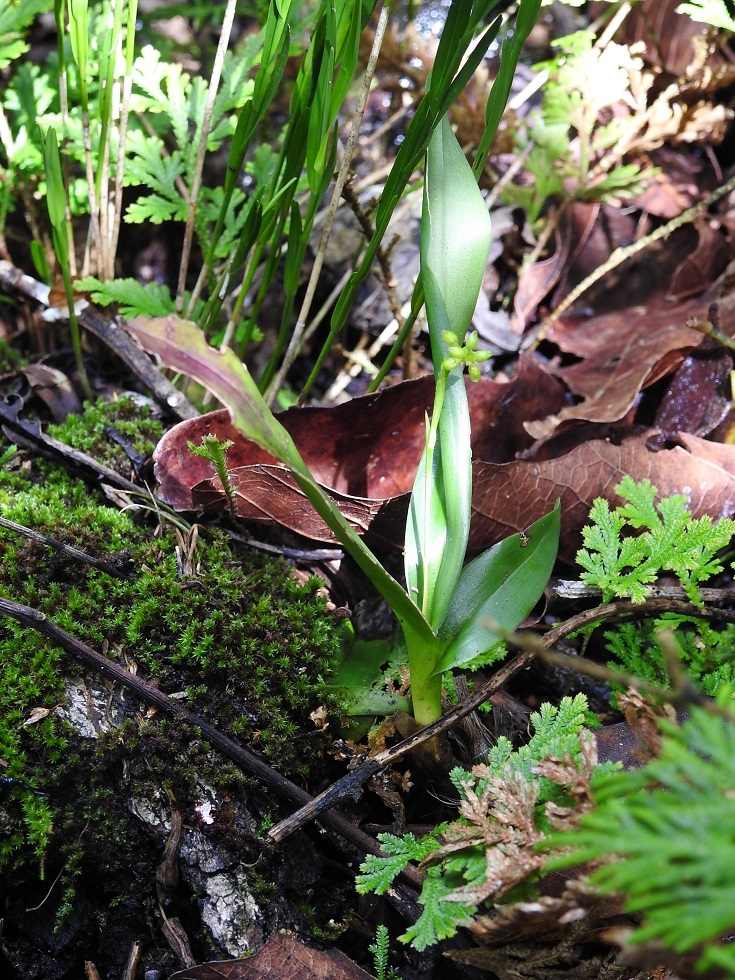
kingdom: Plantae
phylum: Tracheophyta
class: Liliopsida
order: Asparagales
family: Orchidaceae
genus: Polystachya
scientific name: Polystachya foliosa
